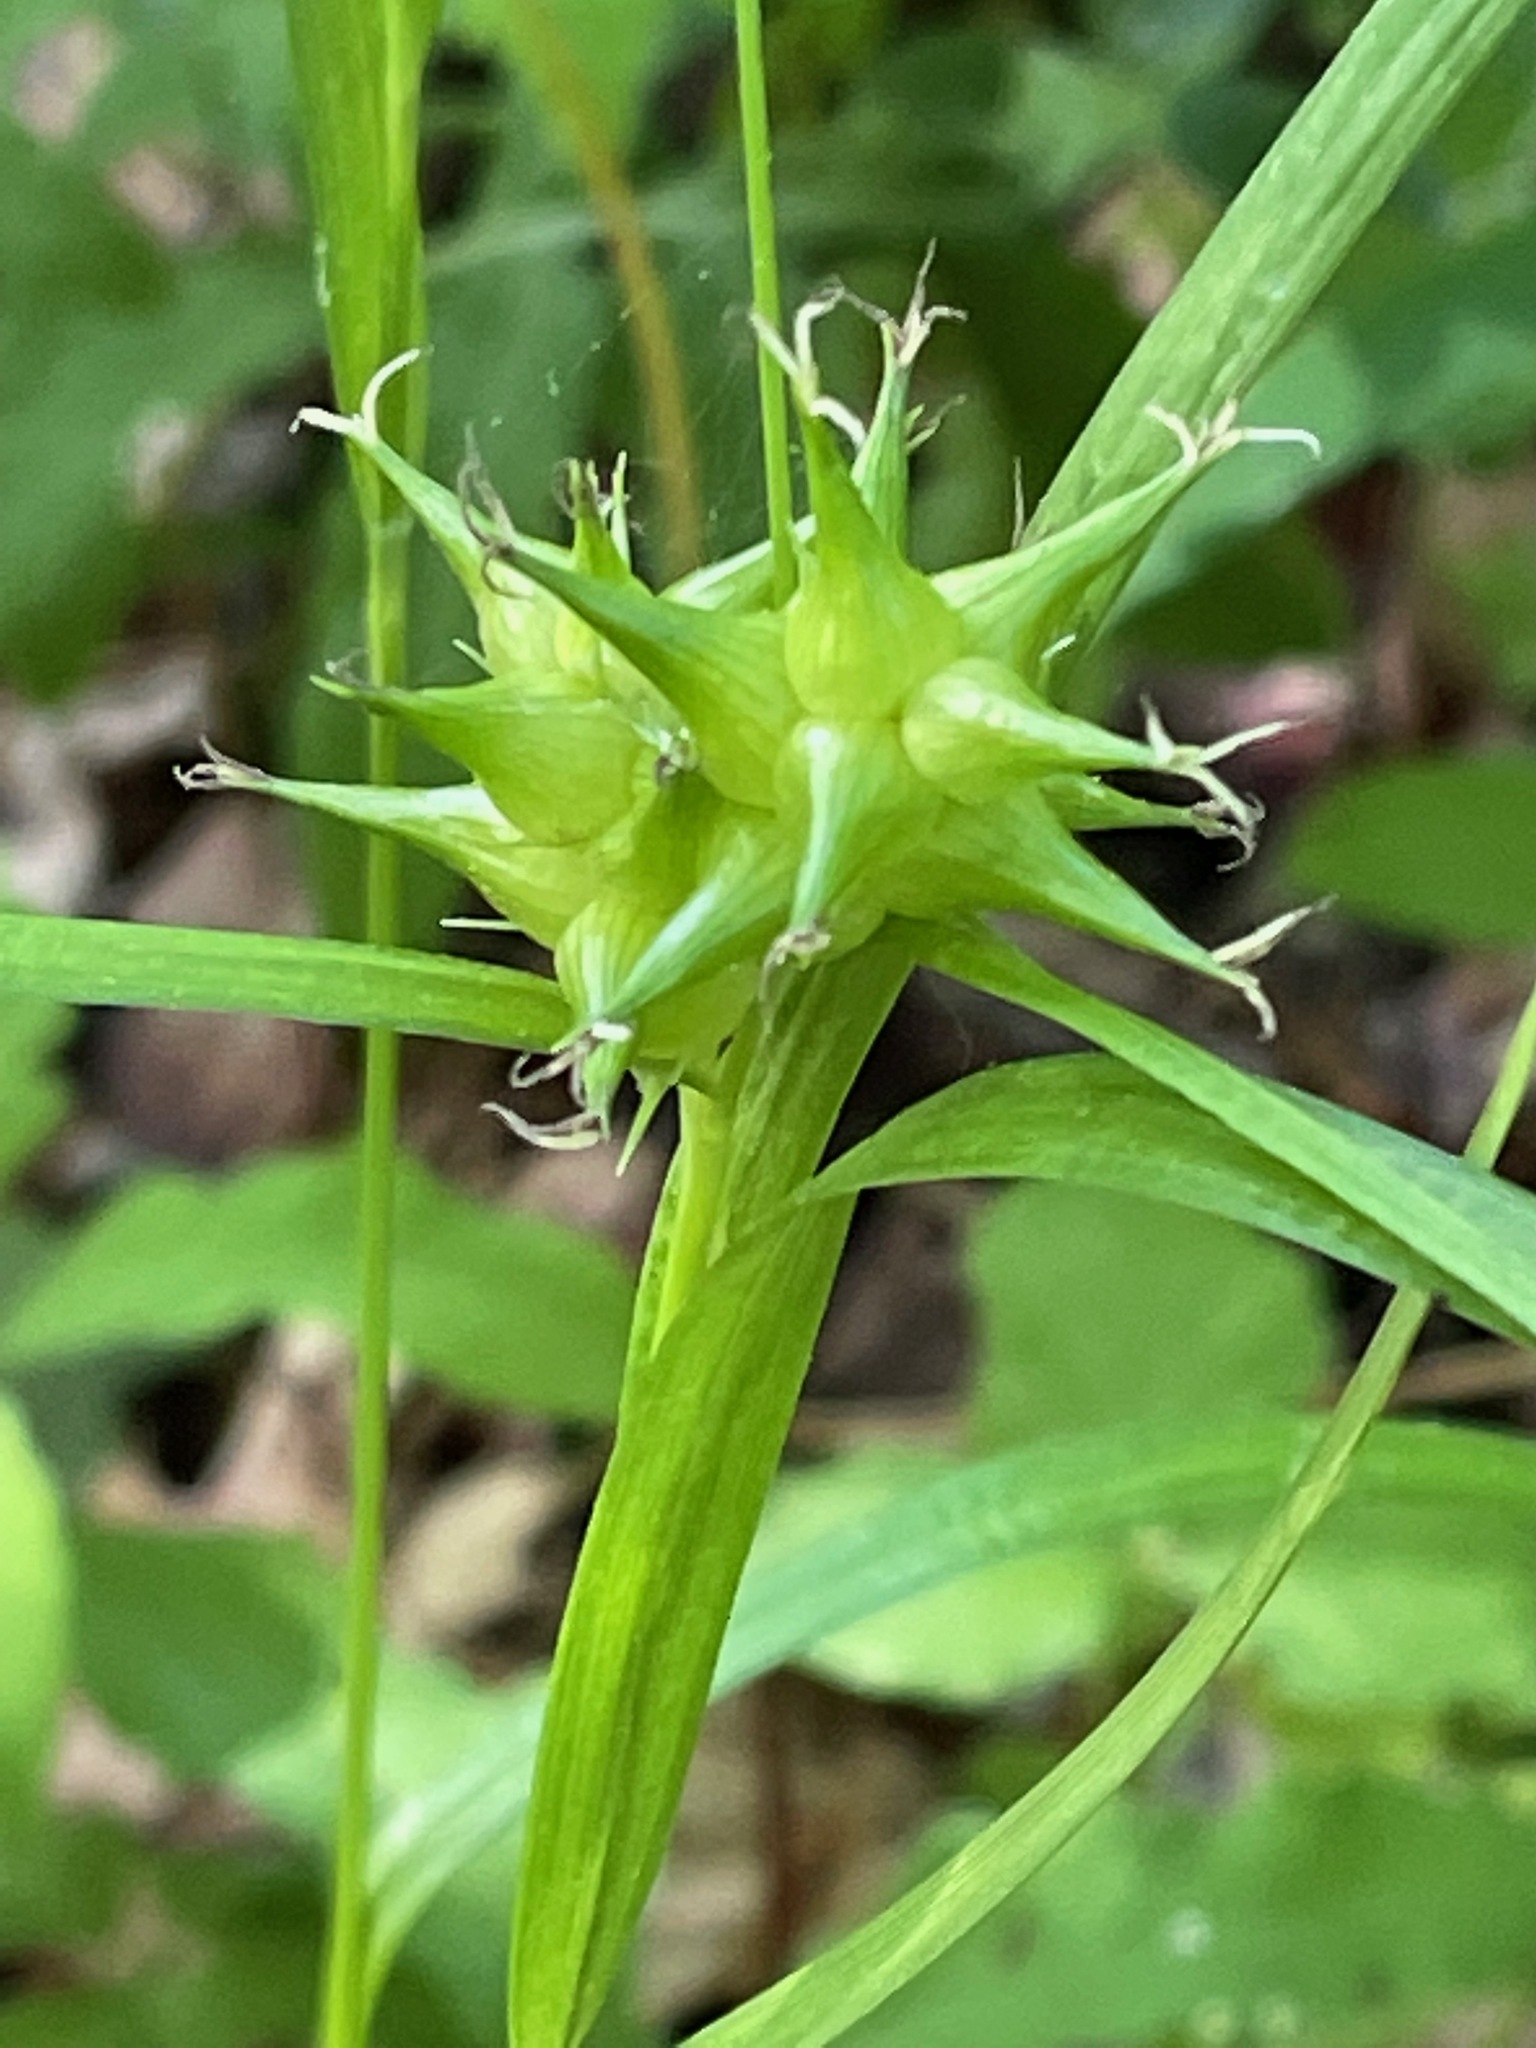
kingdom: Plantae
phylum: Tracheophyta
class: Liliopsida
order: Poales
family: Cyperaceae
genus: Carex
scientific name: Carex intumescens
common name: Greater bladder sedge
